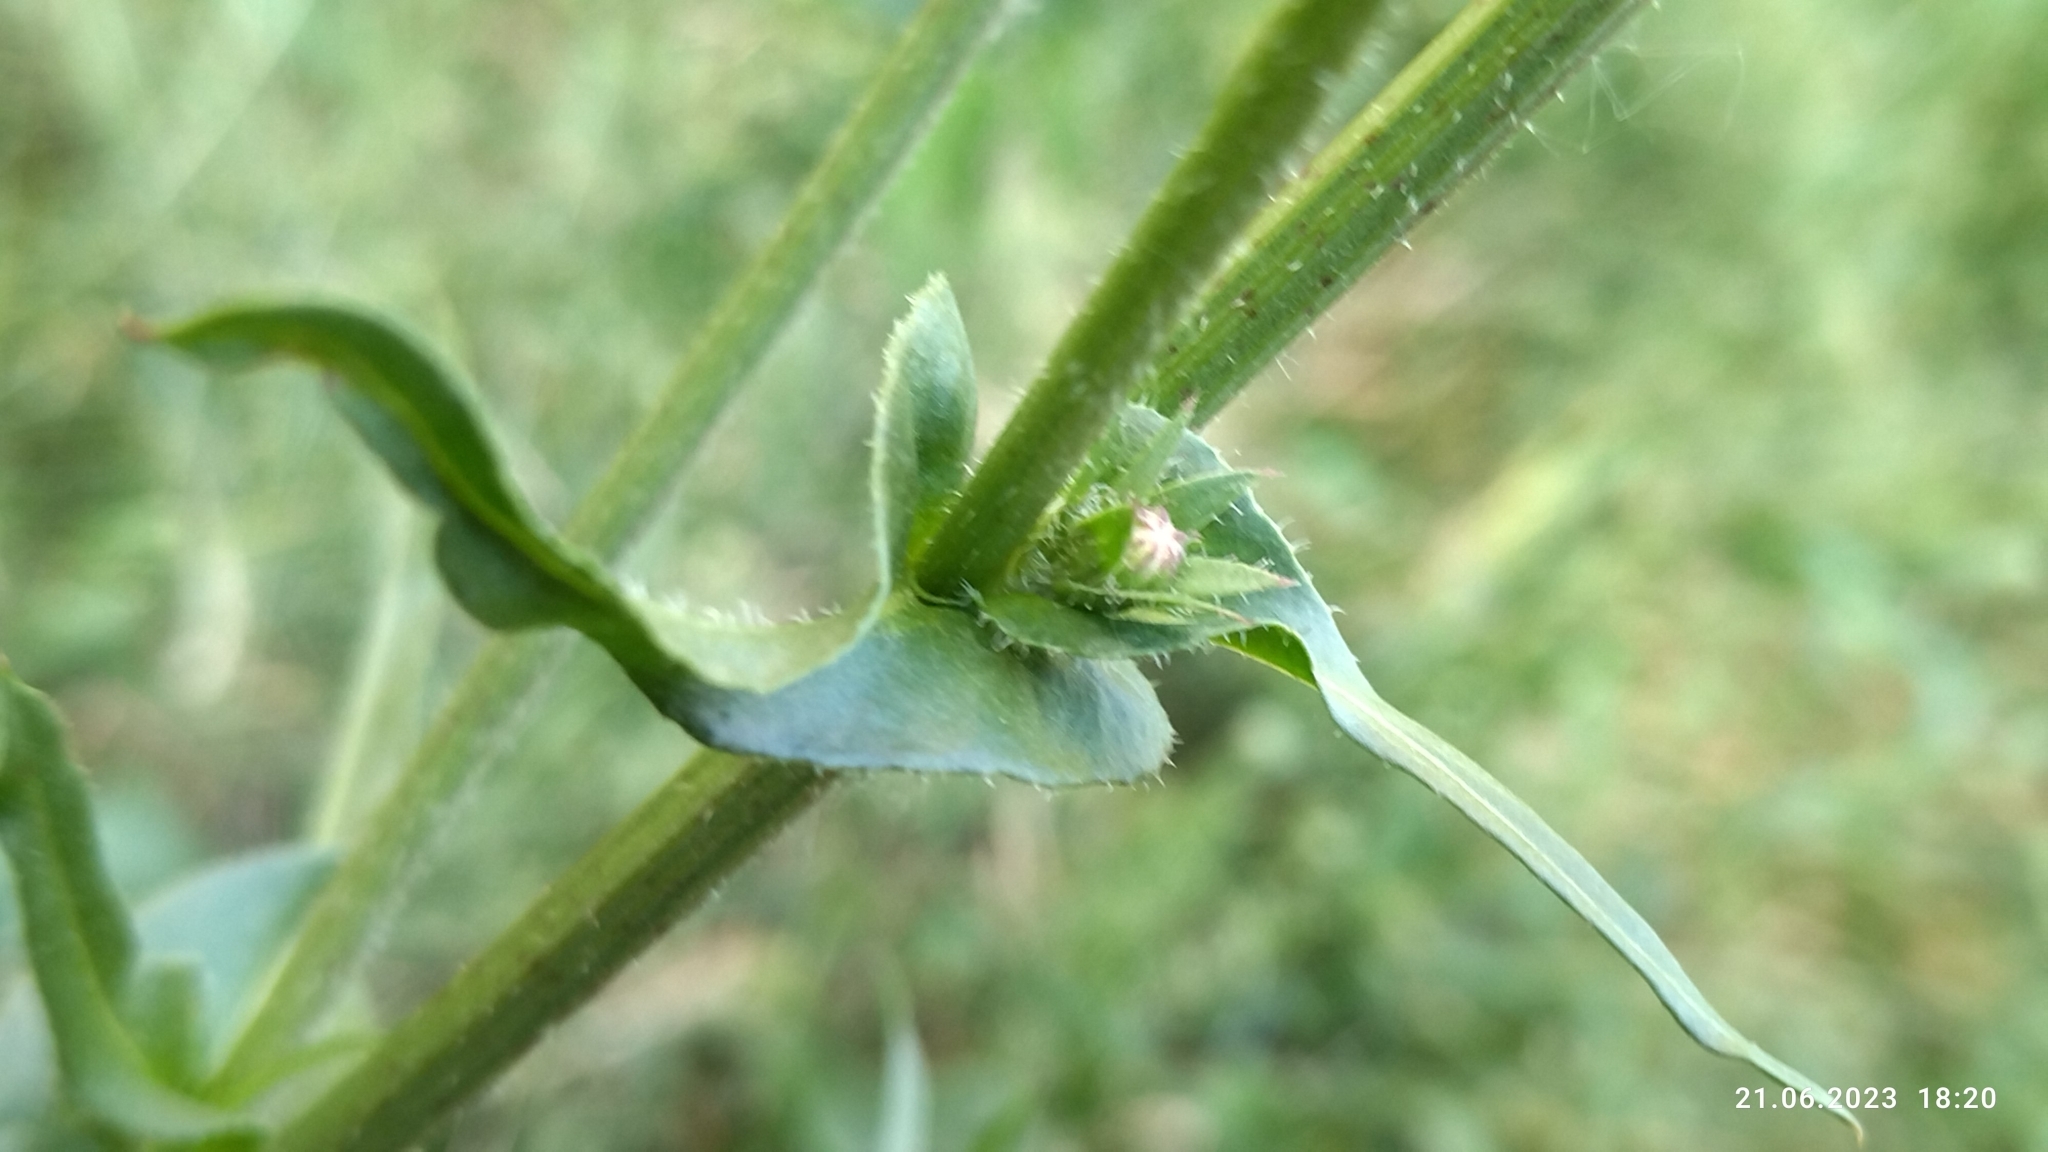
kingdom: Plantae
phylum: Tracheophyta
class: Magnoliopsida
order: Asterales
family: Asteraceae
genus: Cichorium
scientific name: Cichorium intybus
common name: Chicory
